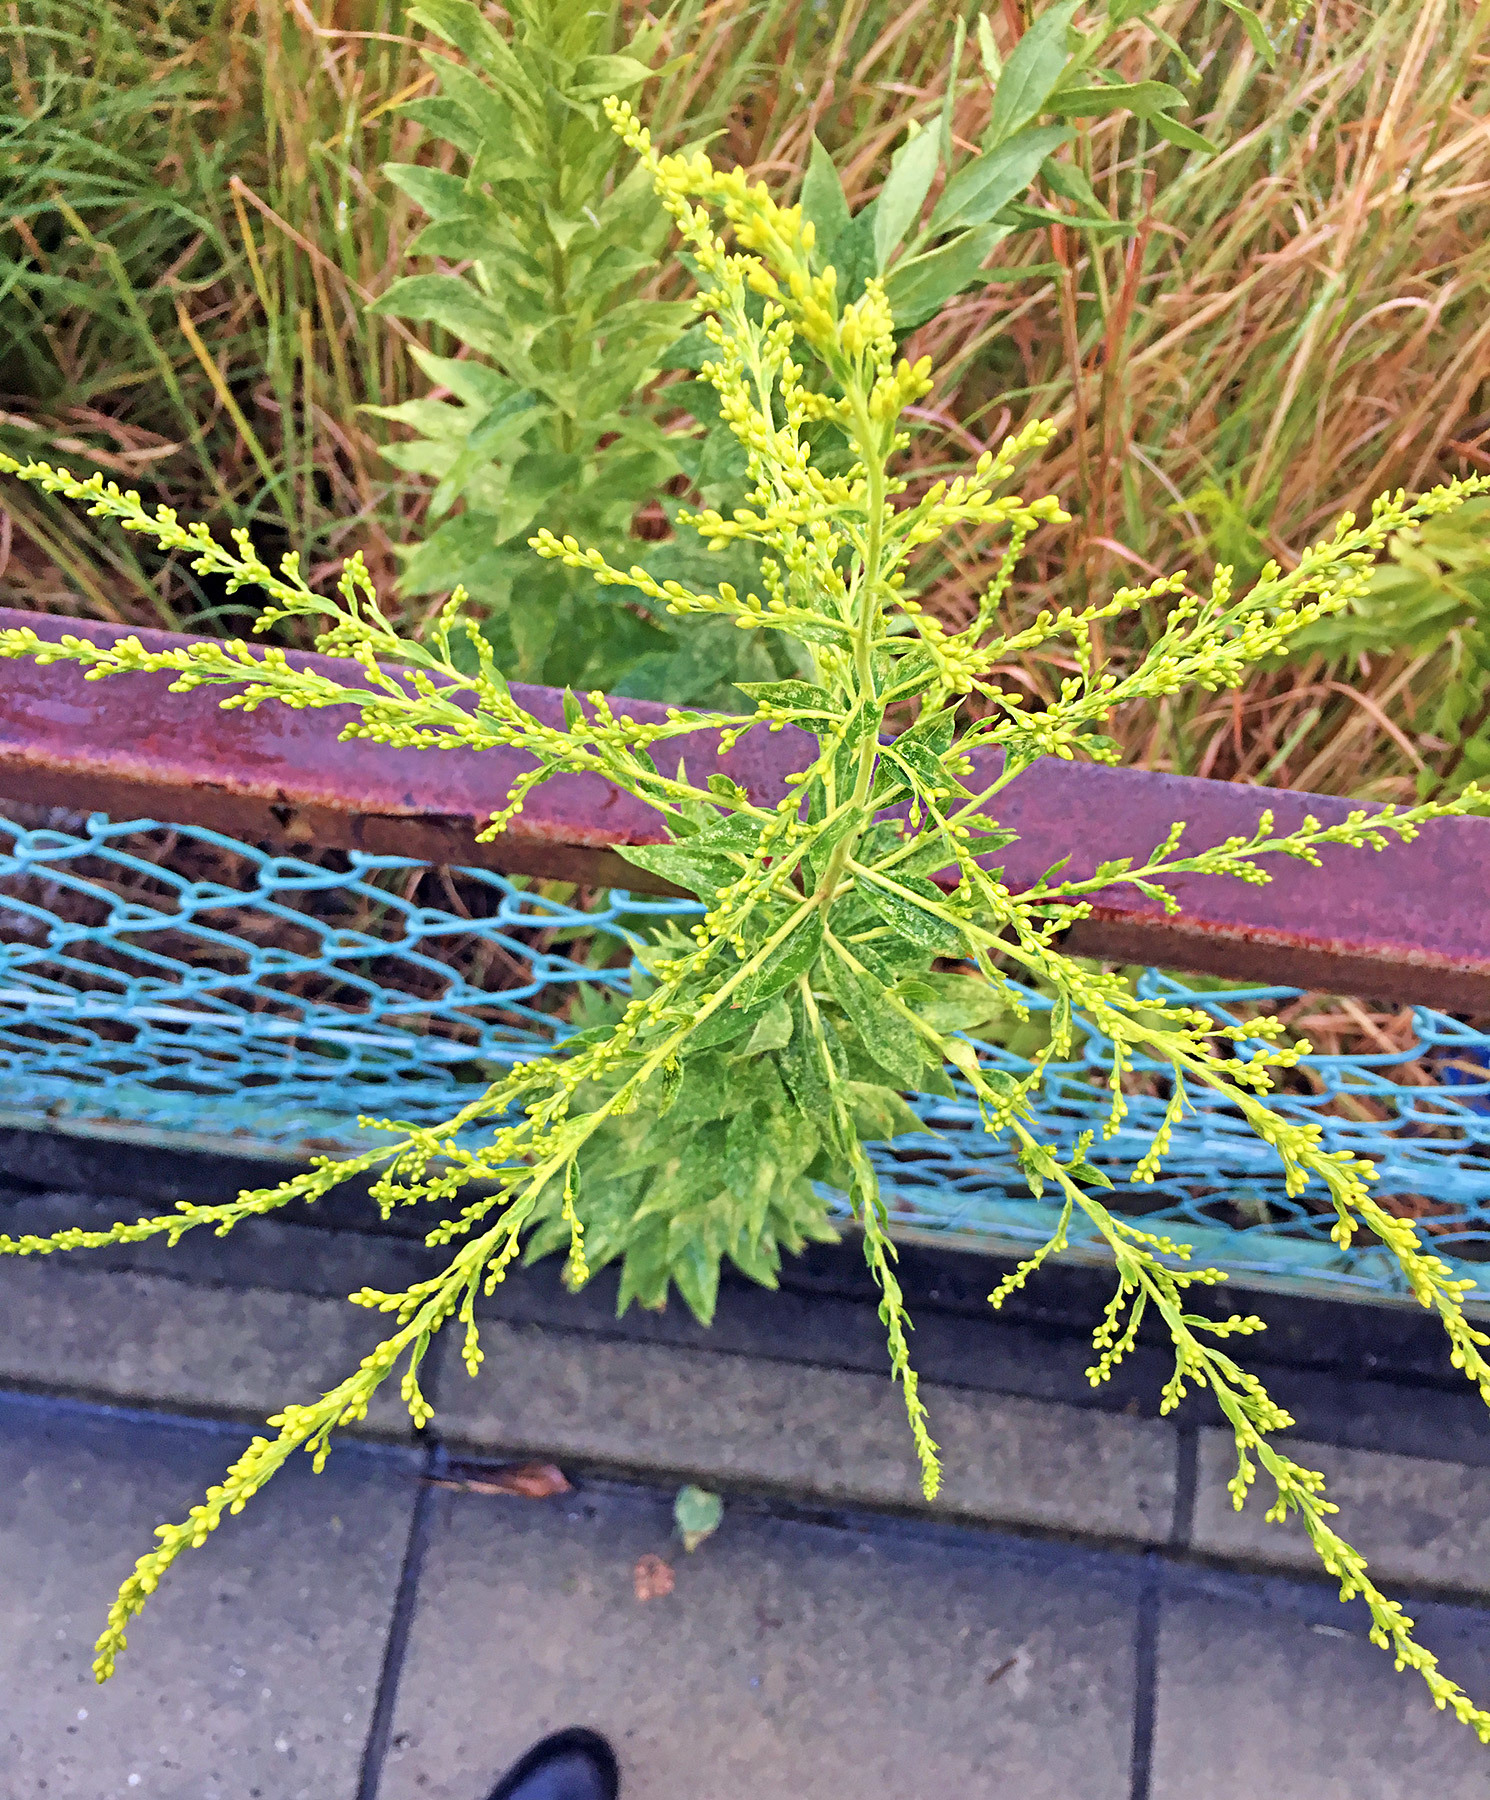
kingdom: Plantae
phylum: Tracheophyta
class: Magnoliopsida
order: Asterales
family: Asteraceae
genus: Solidago
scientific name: Solidago altissima
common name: Late goldenrod
